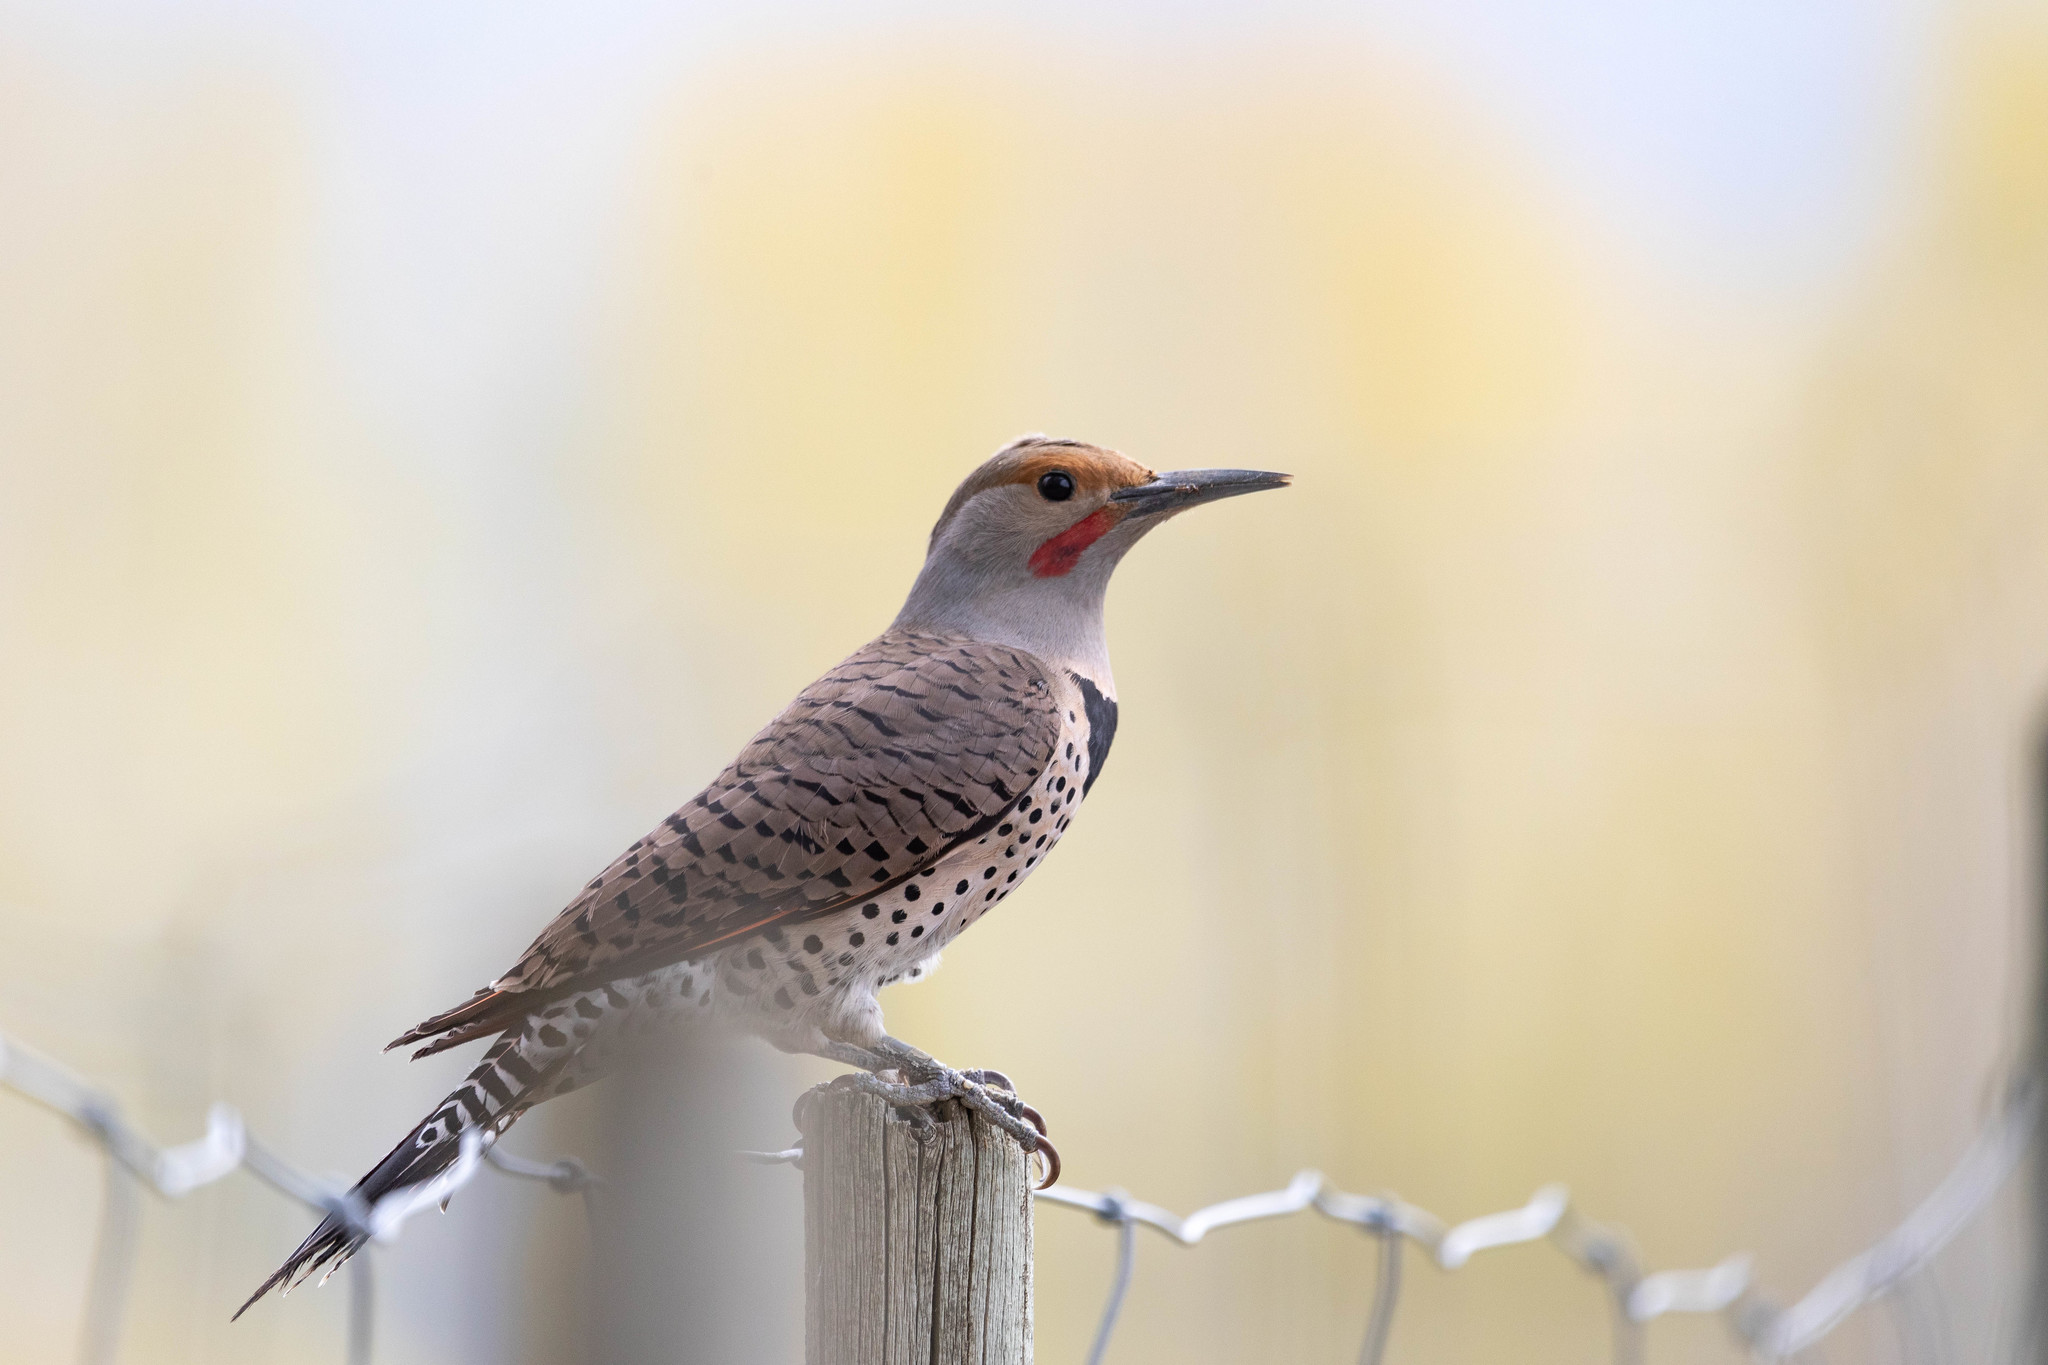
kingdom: Animalia
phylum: Chordata
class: Aves
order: Piciformes
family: Picidae
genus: Colaptes
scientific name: Colaptes auratus
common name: Northern flicker
